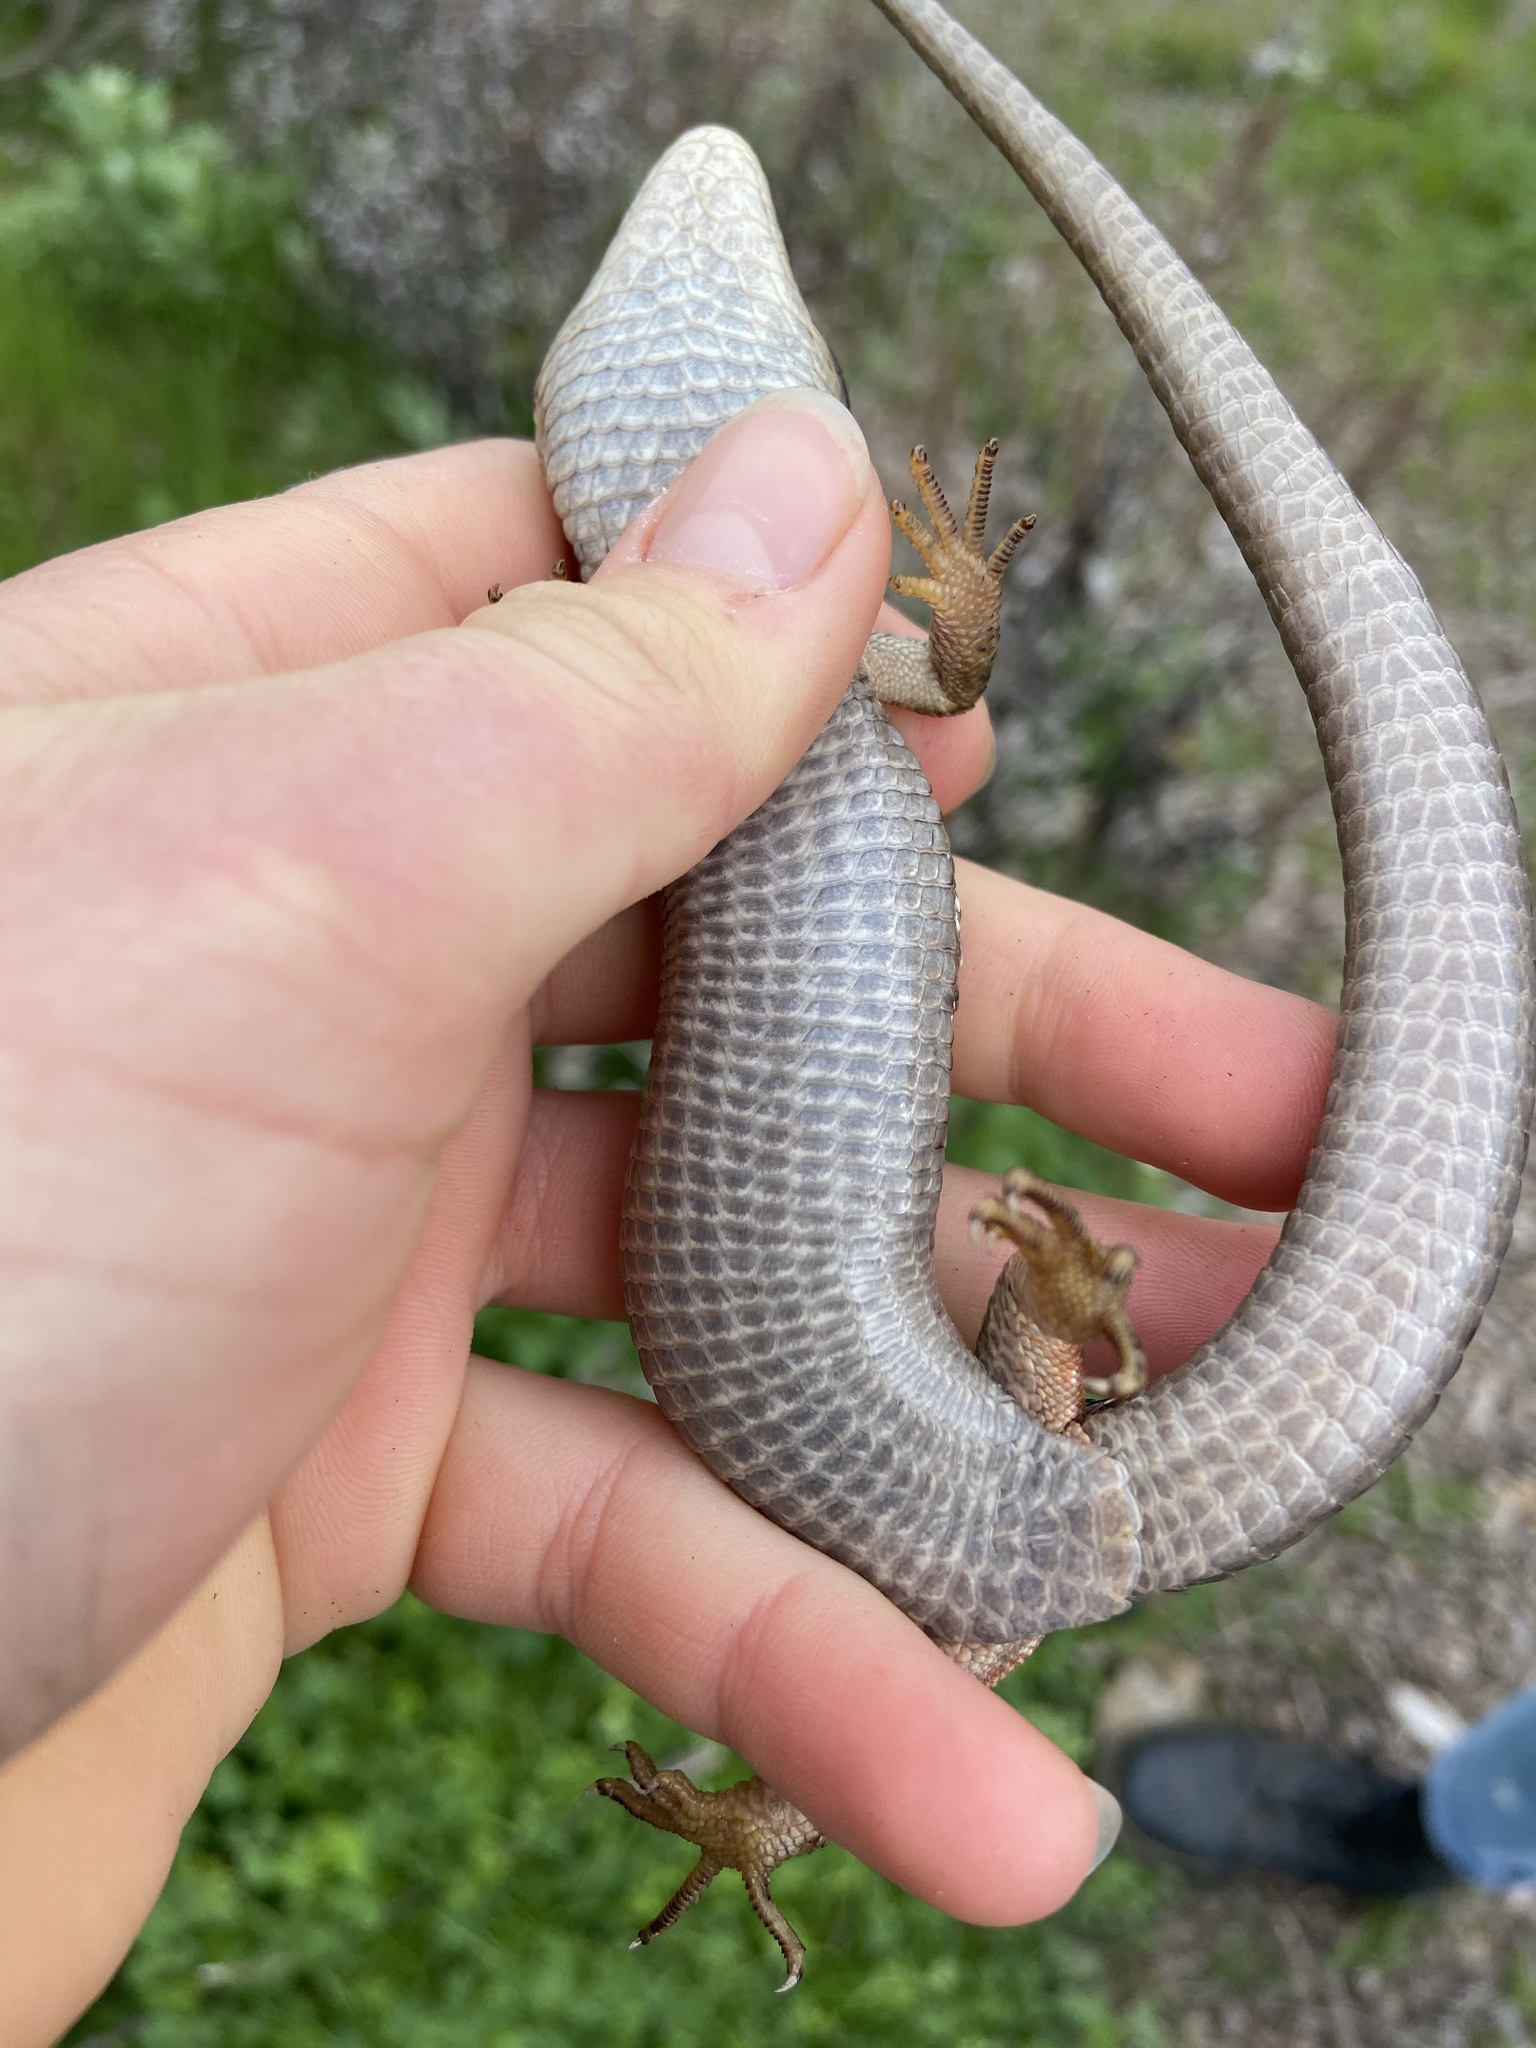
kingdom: Animalia
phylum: Chordata
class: Squamata
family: Anguidae
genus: Elgaria
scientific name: Elgaria multicarinata
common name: Southern alligator lizard
